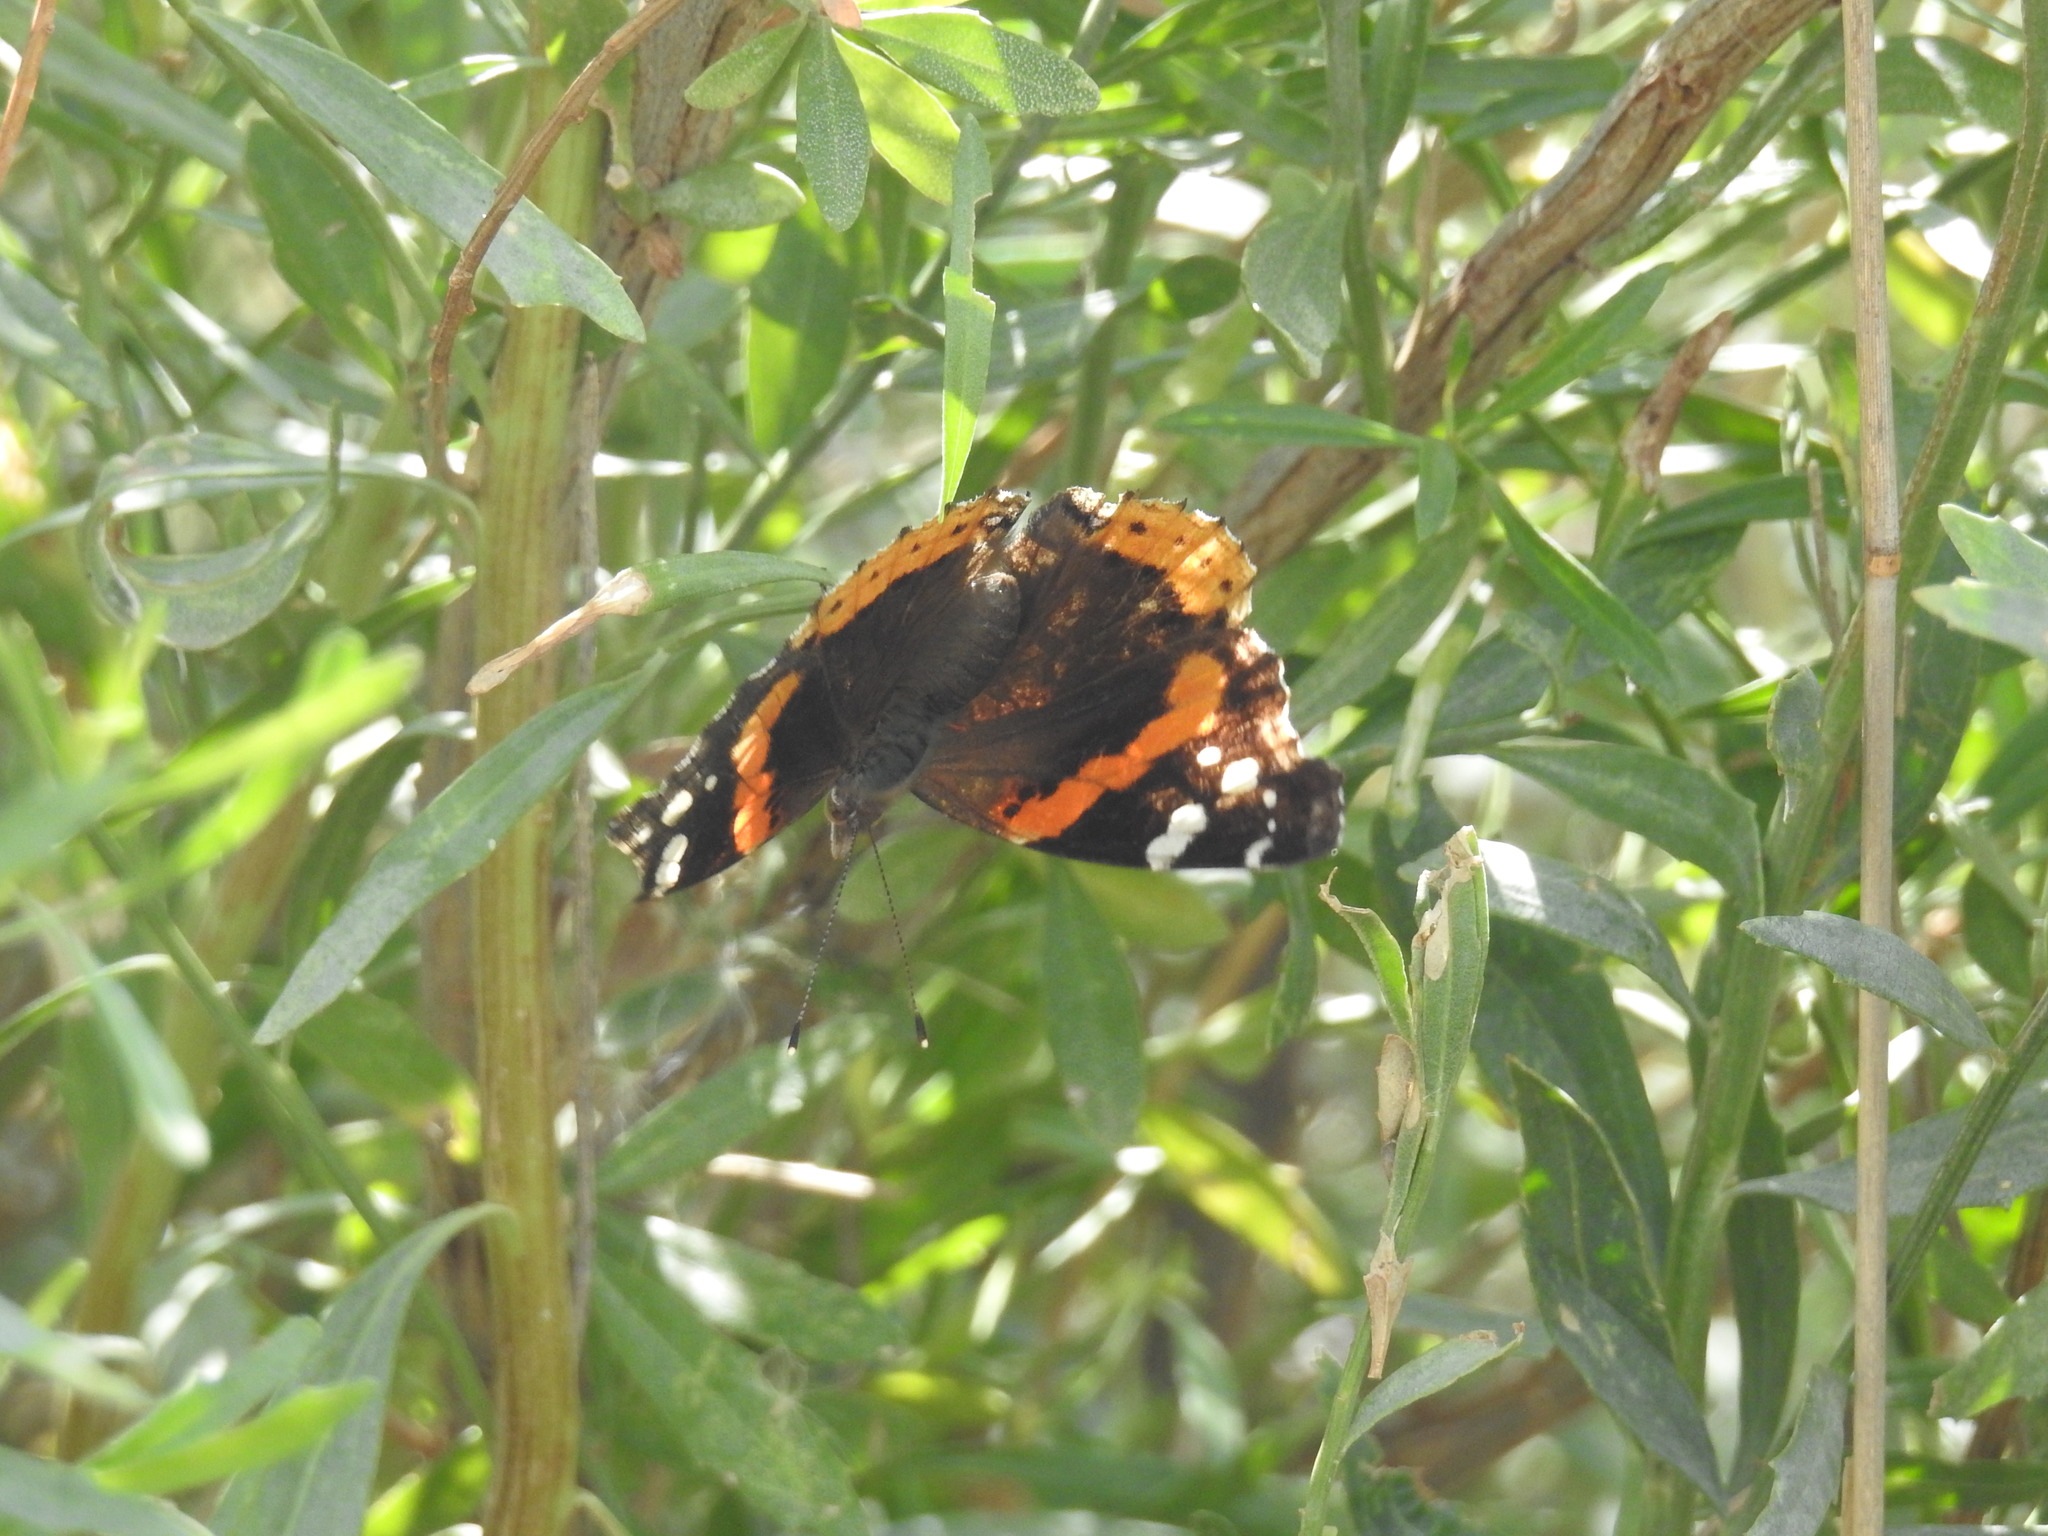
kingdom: Animalia
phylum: Arthropoda
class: Insecta
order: Lepidoptera
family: Nymphalidae
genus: Vanessa
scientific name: Vanessa atalanta
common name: Red admiral
